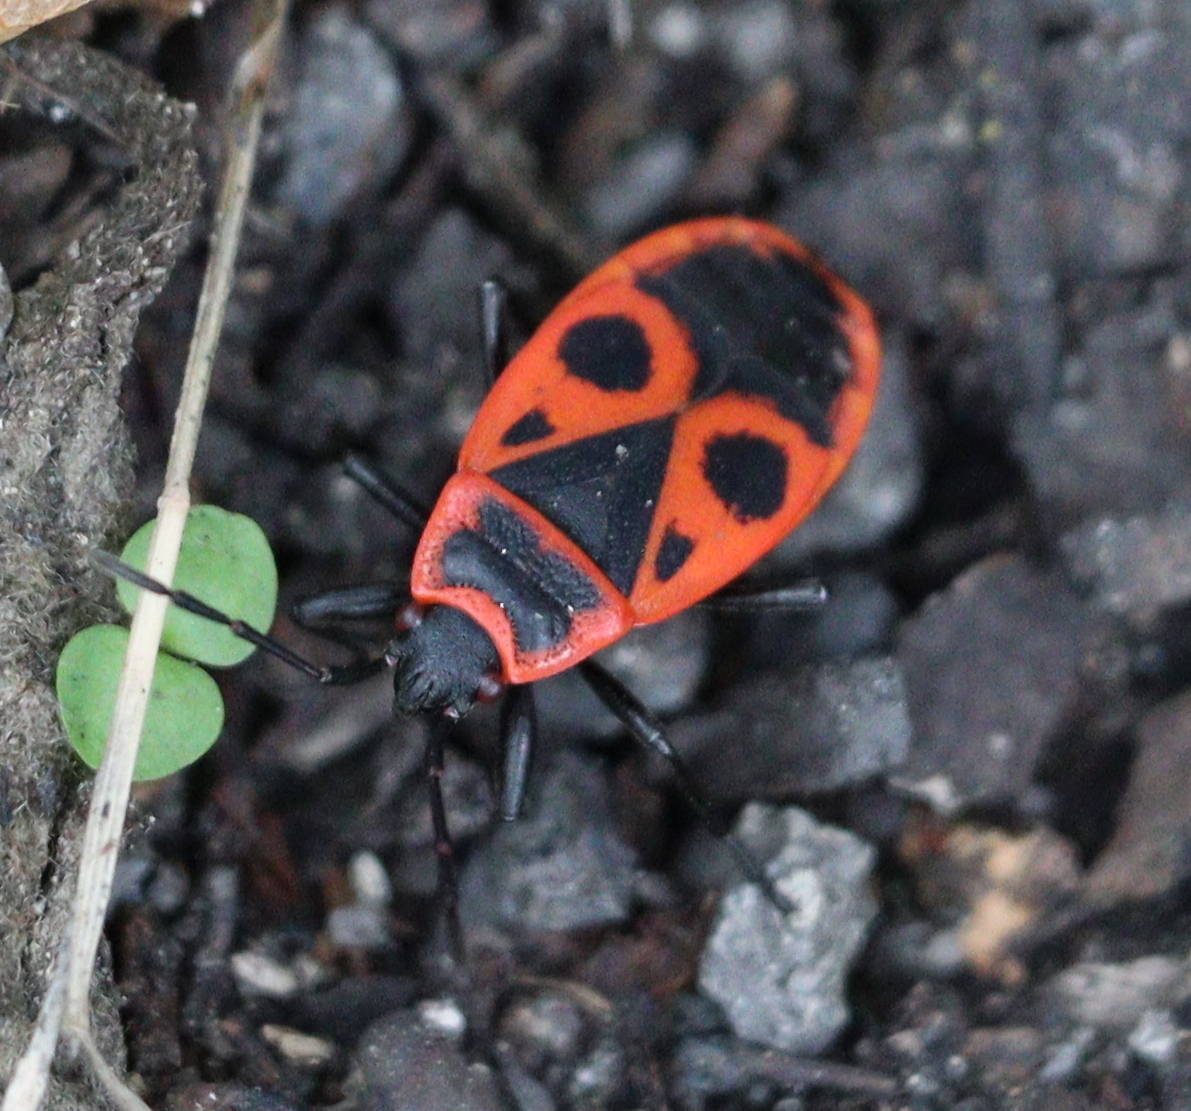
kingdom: Animalia
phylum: Arthropoda
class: Insecta
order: Hemiptera
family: Pyrrhocoridae
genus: Pyrrhocoris
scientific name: Pyrrhocoris apterus
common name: Firebug
